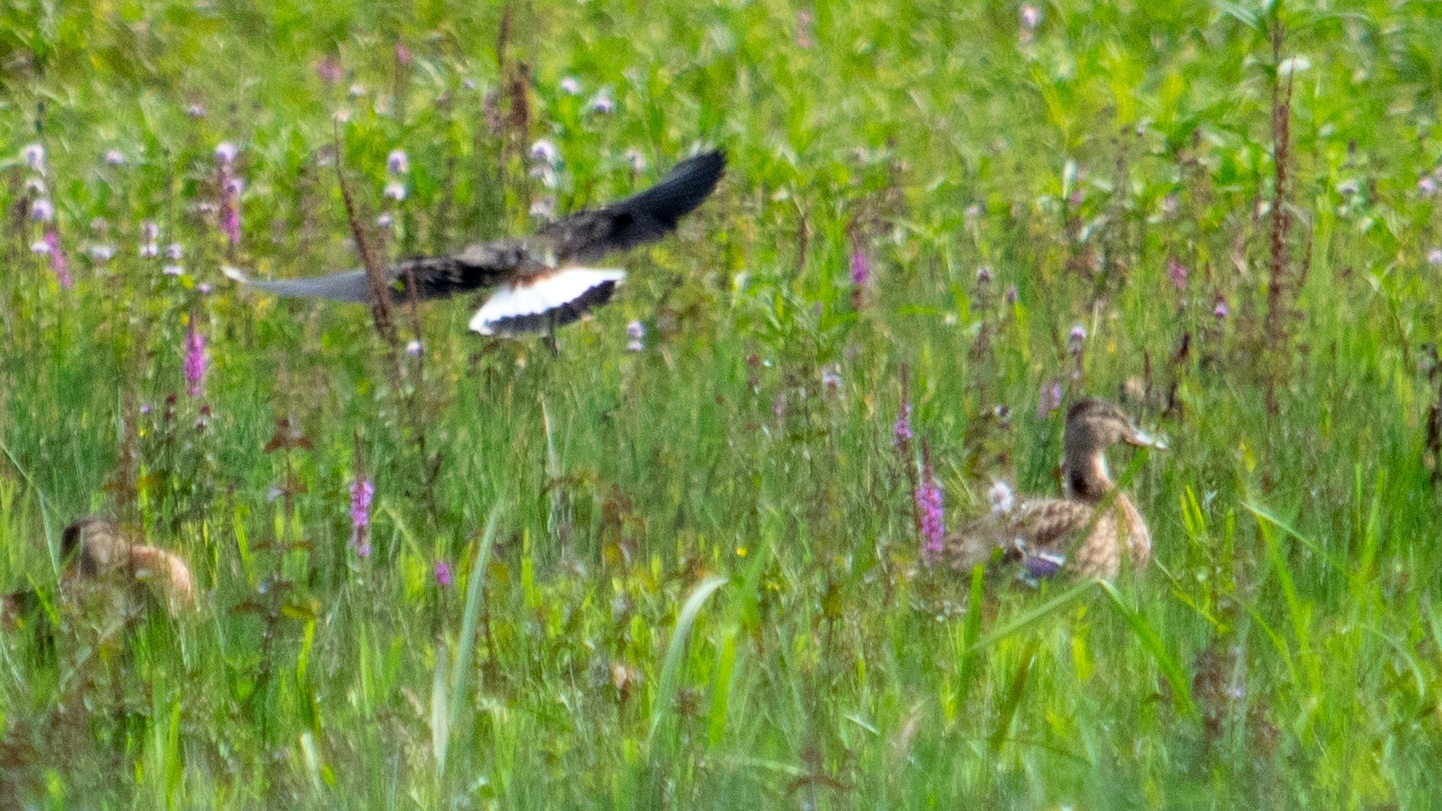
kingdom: Animalia
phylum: Chordata
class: Aves
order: Charadriiformes
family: Charadriidae
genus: Vanellus
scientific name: Vanellus vanellus
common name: Northern lapwing
